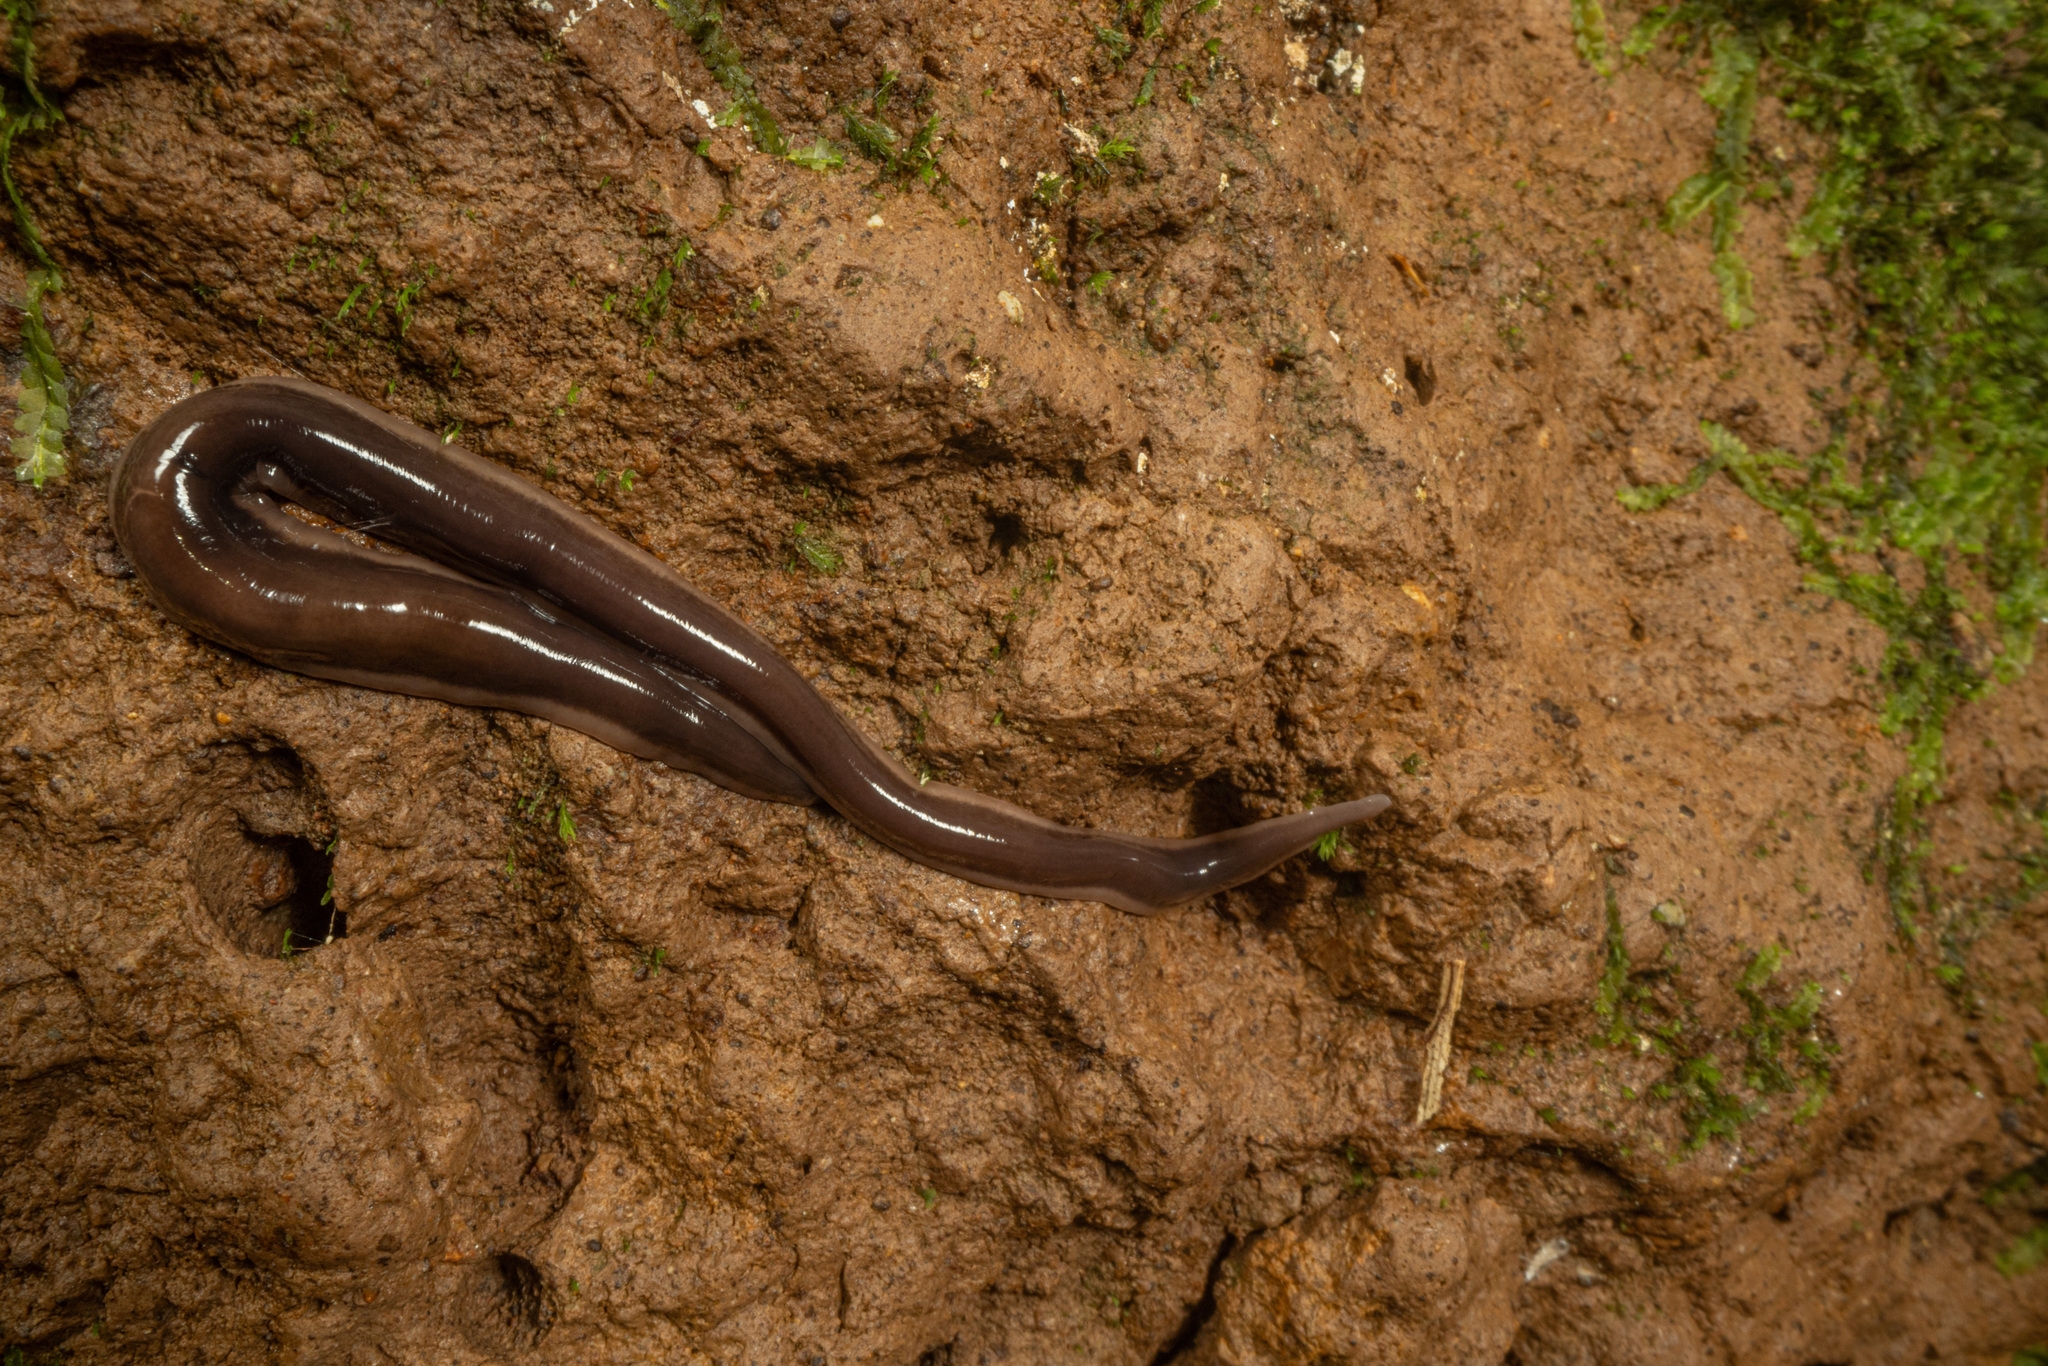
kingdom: Animalia
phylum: Platyhelminthes
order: Tricladida
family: Geoplanidae
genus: Arthurdendyus
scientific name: Arthurdendyus australis
